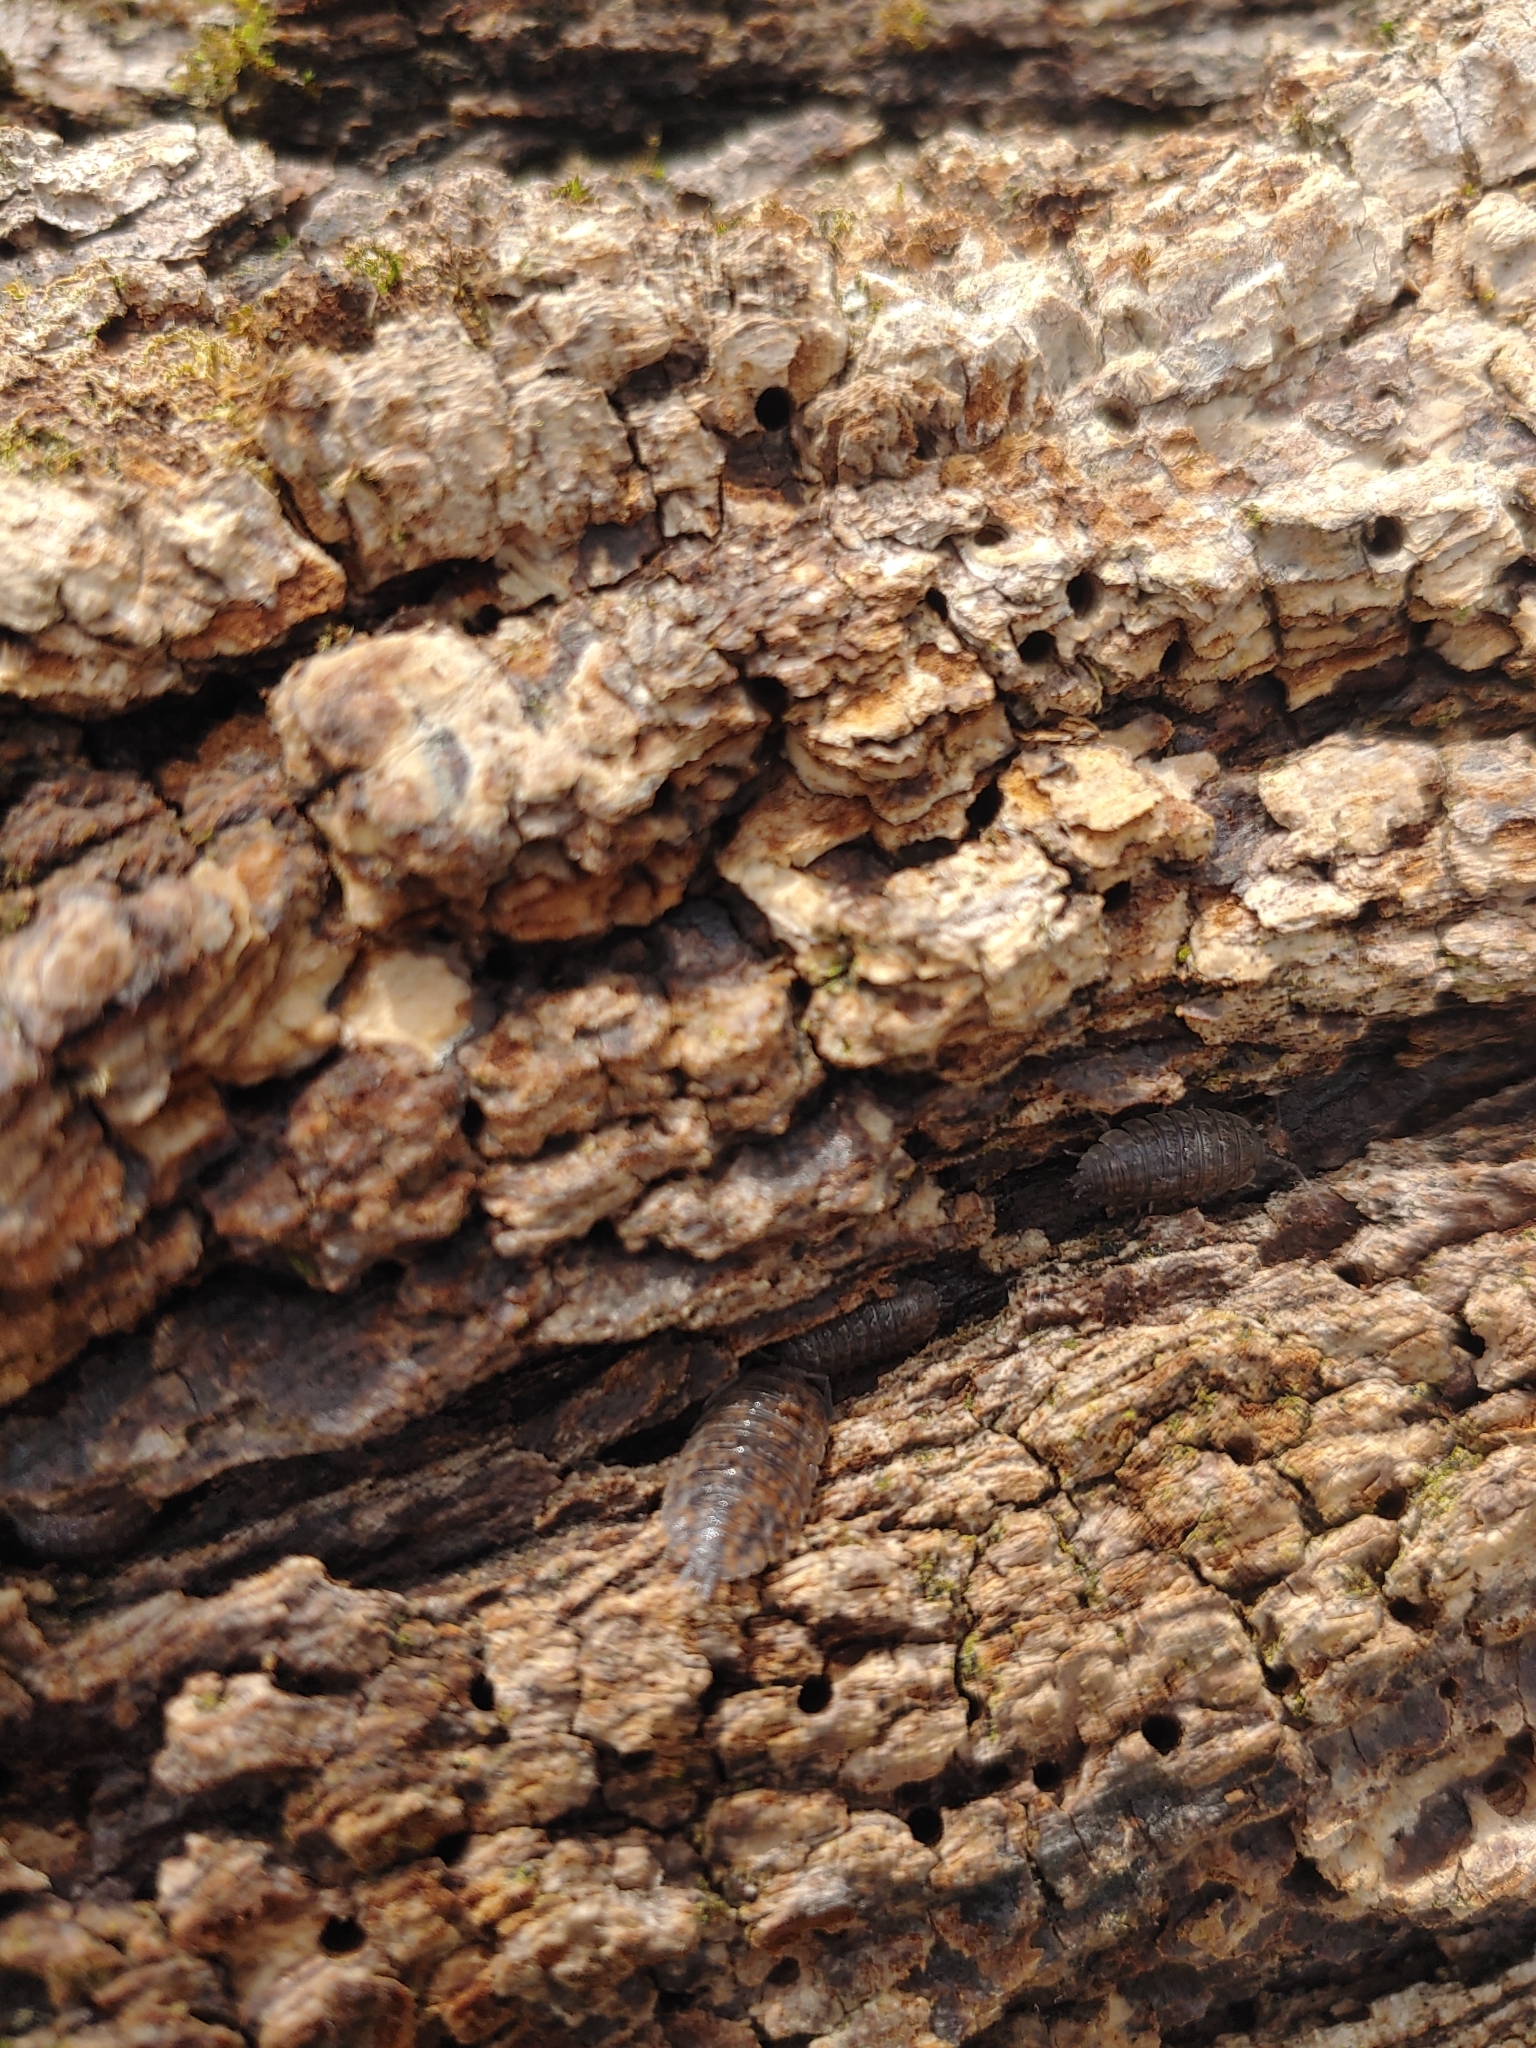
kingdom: Animalia
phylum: Arthropoda
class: Malacostraca
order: Isopoda
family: Trachelipodidae
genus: Trachelipus
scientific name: Trachelipus rathkii
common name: Isopod
